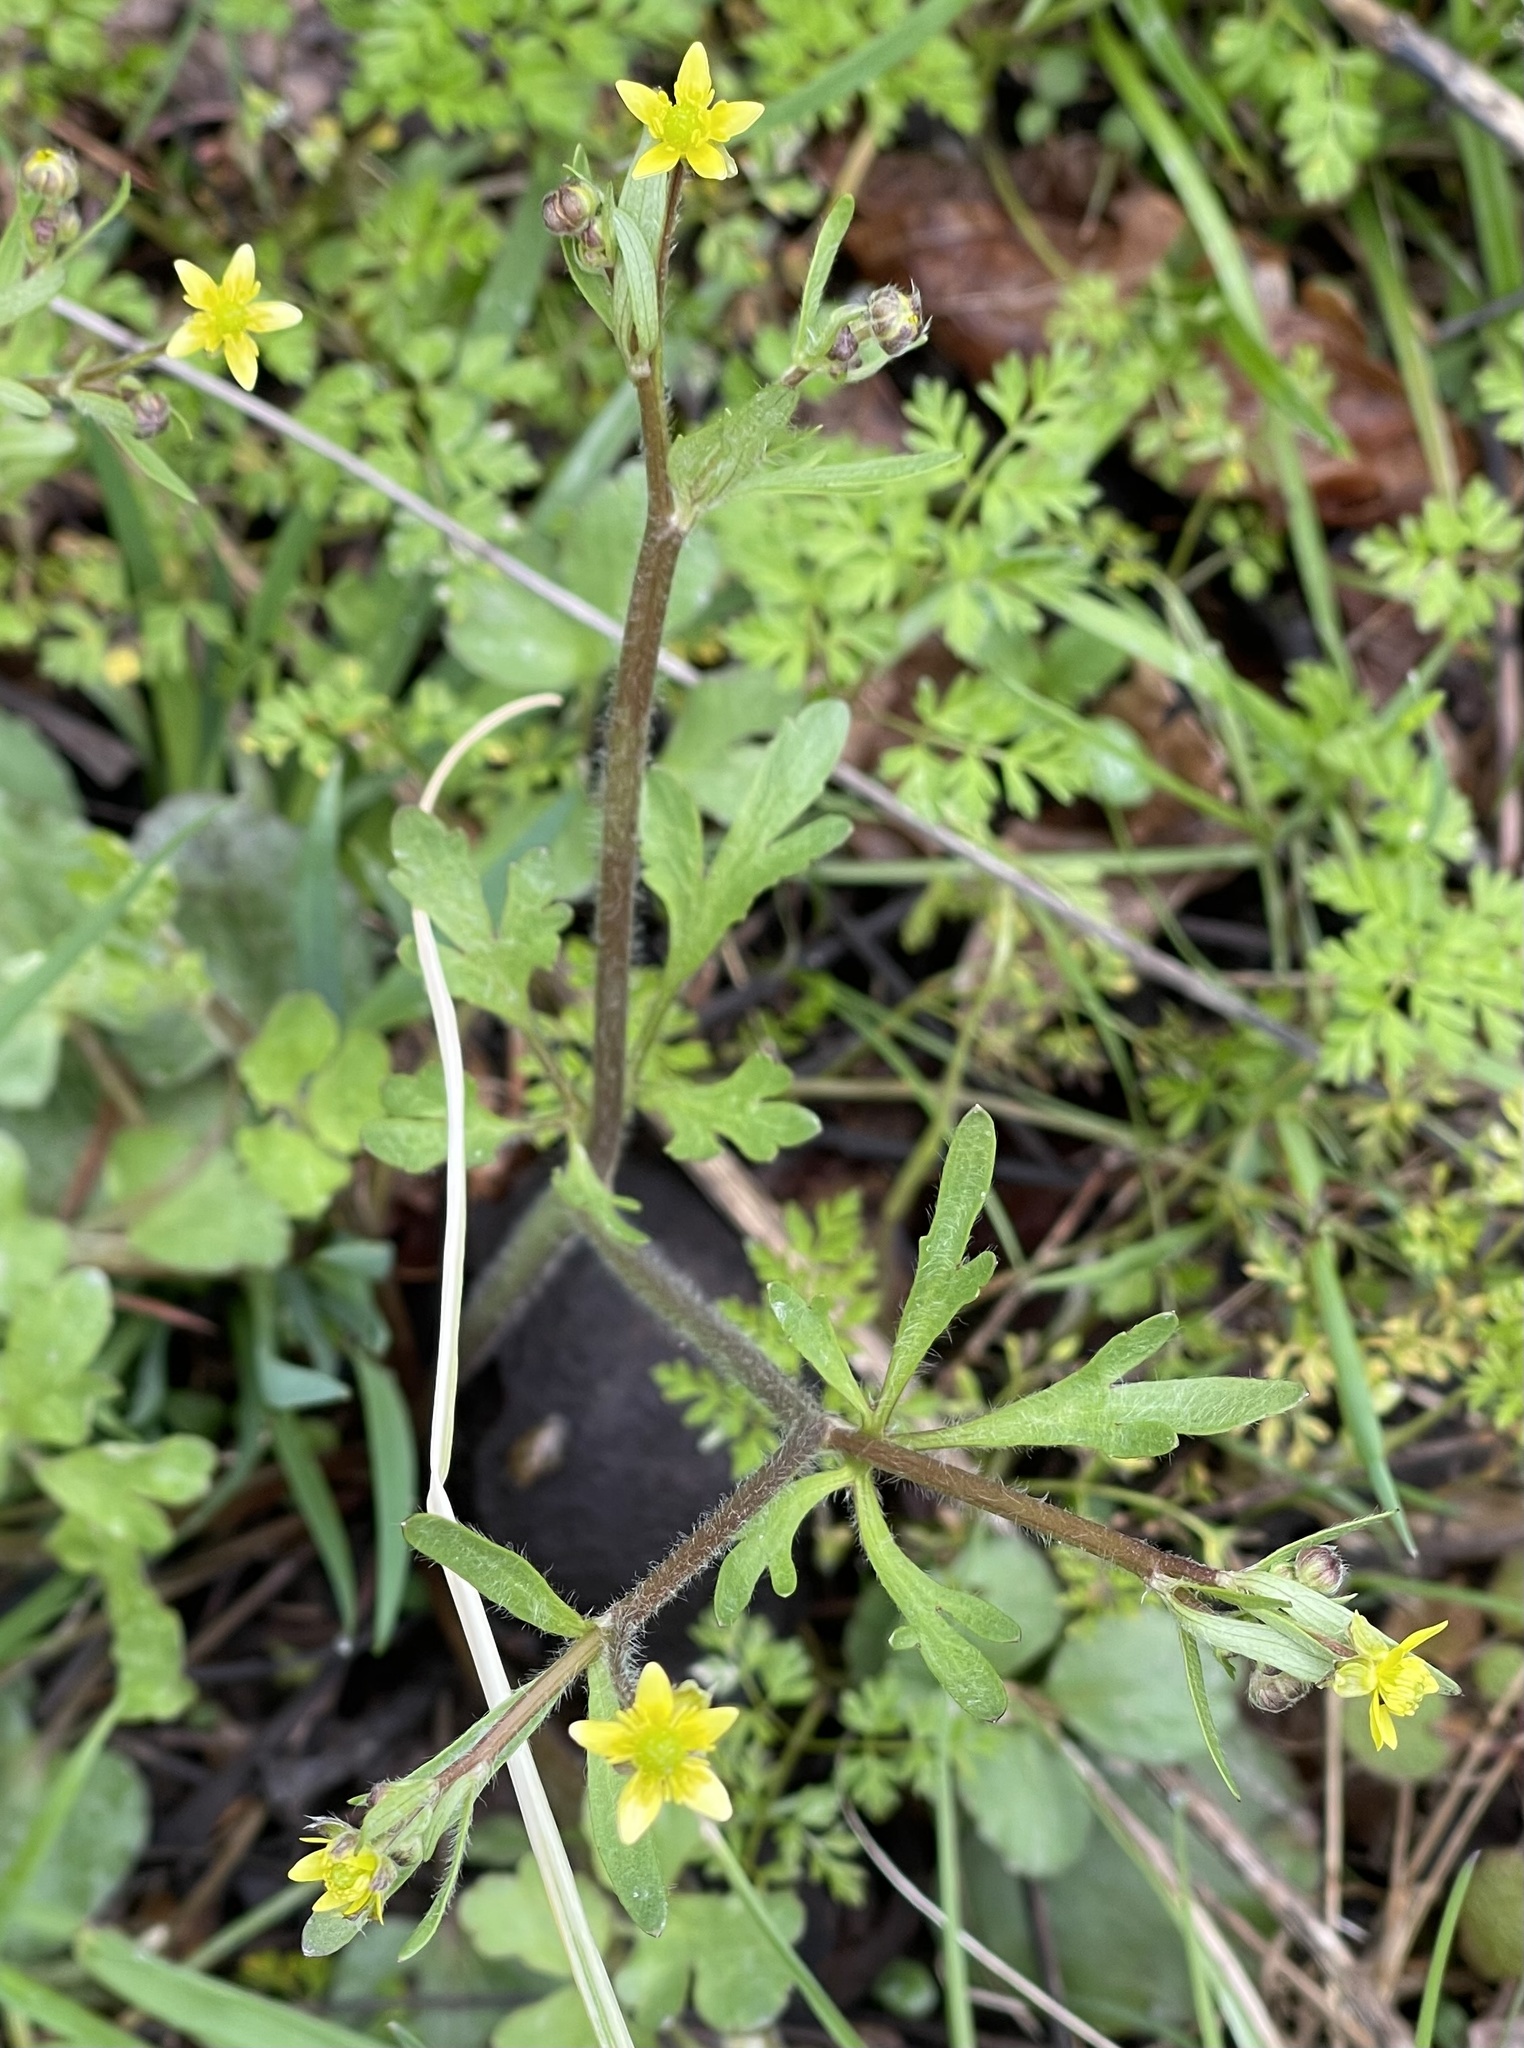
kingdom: Plantae
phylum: Tracheophyta
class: Magnoliopsida
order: Ranunculales
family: Ranunculaceae
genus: Ranunculus
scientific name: Ranunculus micranthus
